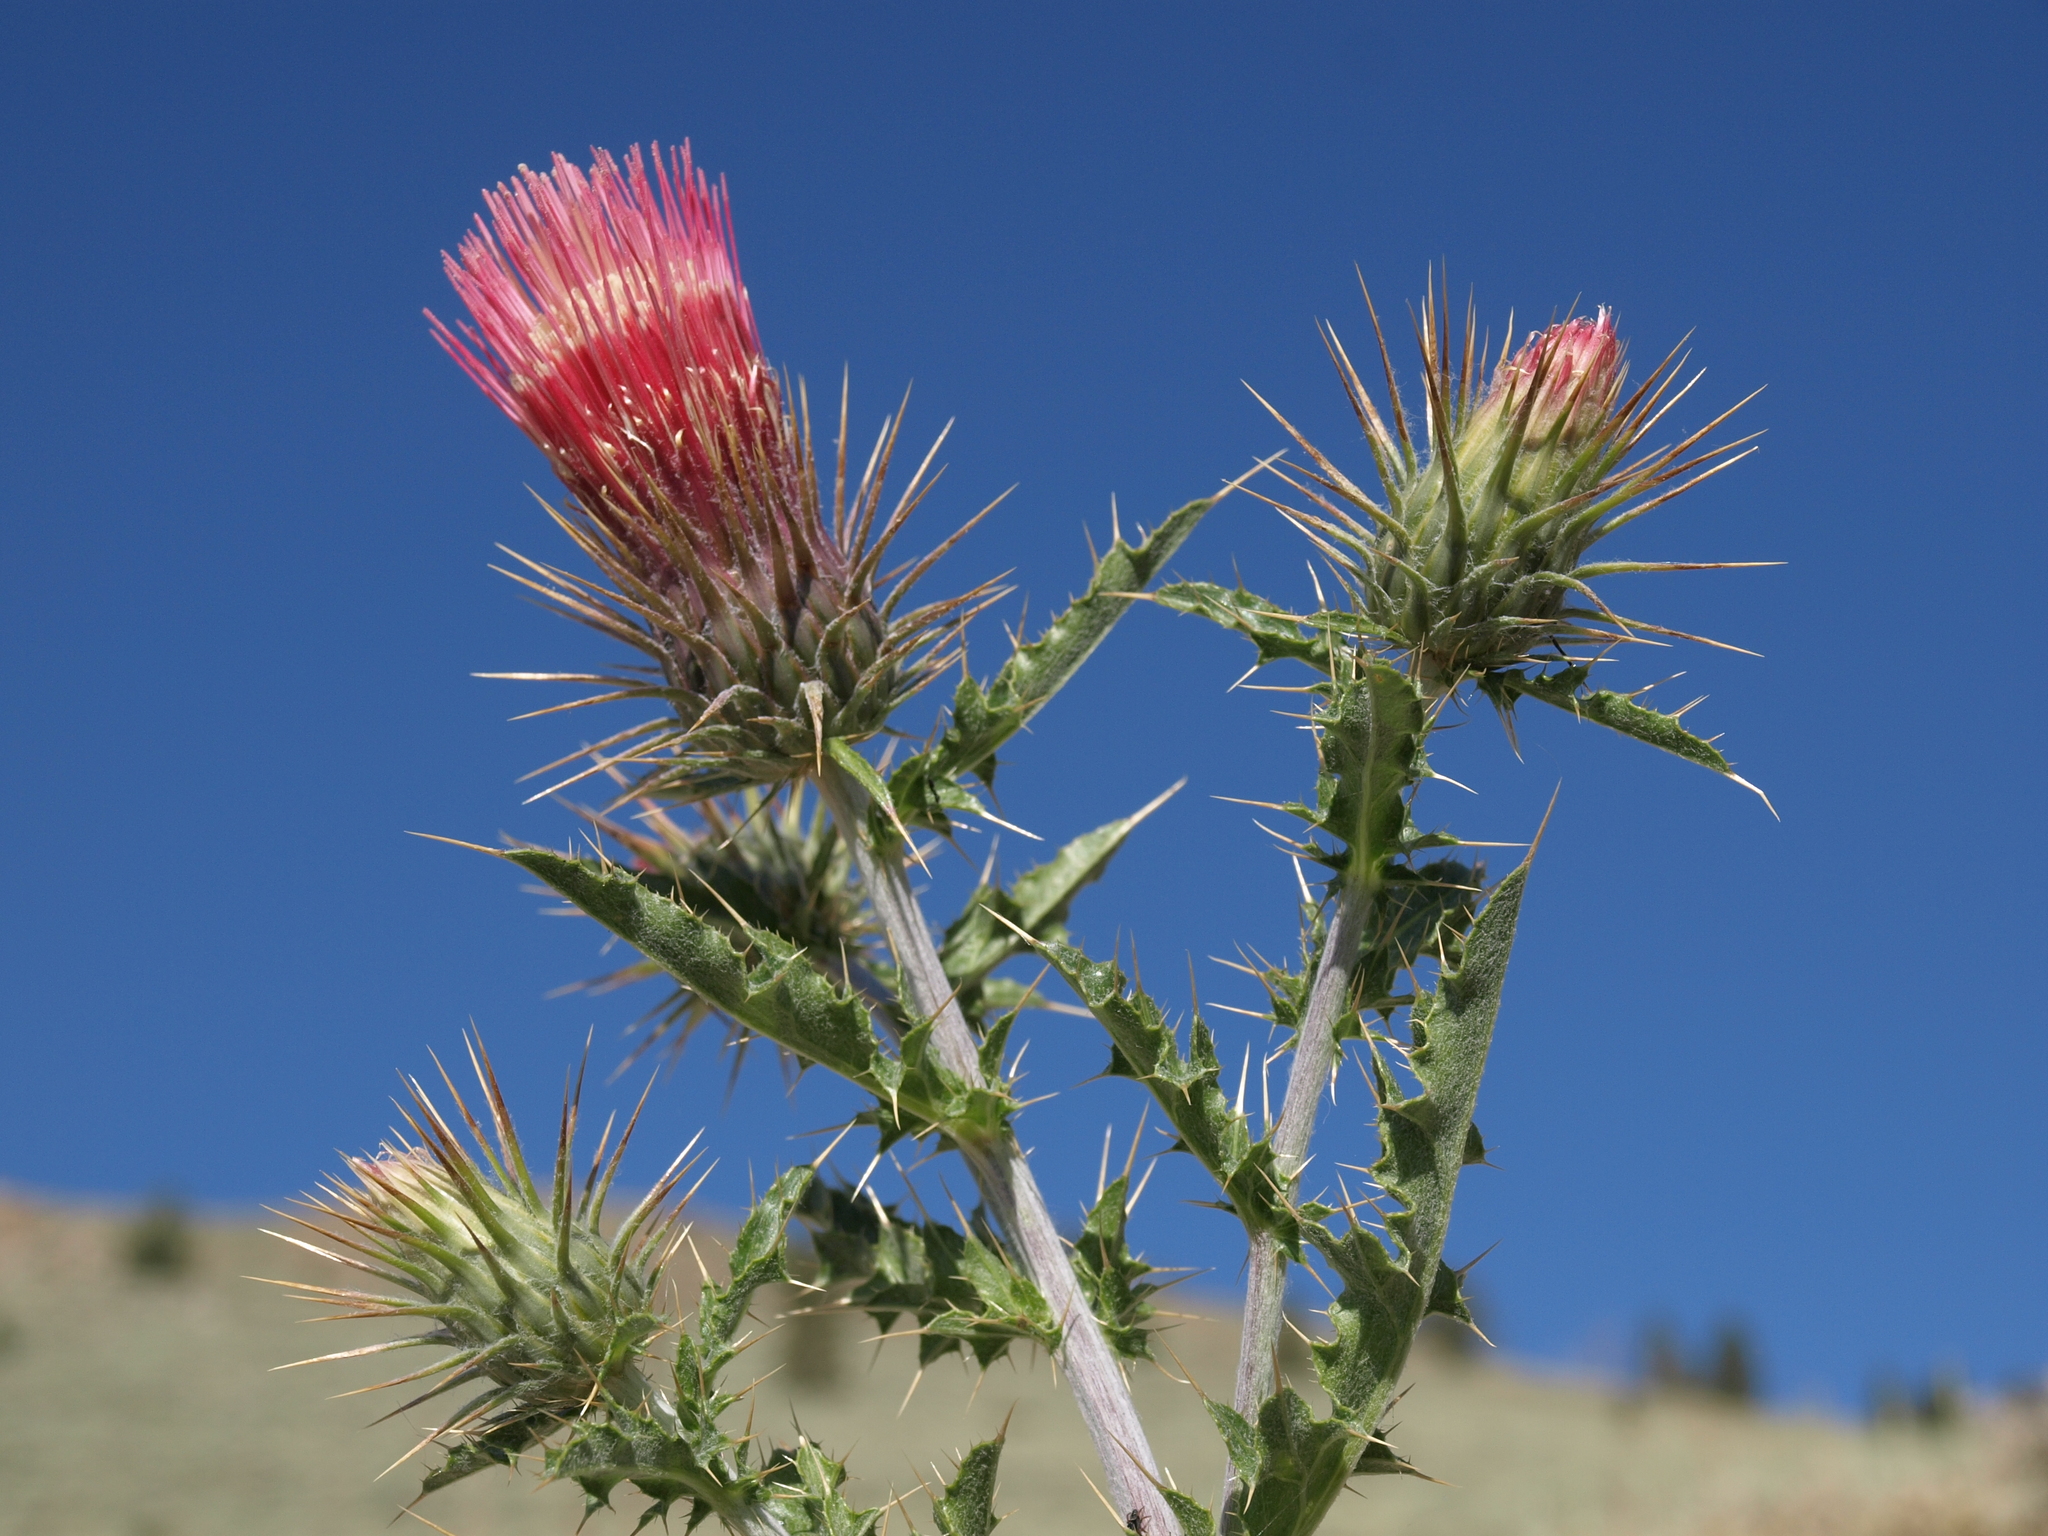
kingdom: Plantae
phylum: Tracheophyta
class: Magnoliopsida
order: Asterales
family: Asteraceae
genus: Cirsium
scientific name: Cirsium arizonicum
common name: Arizona thistle
